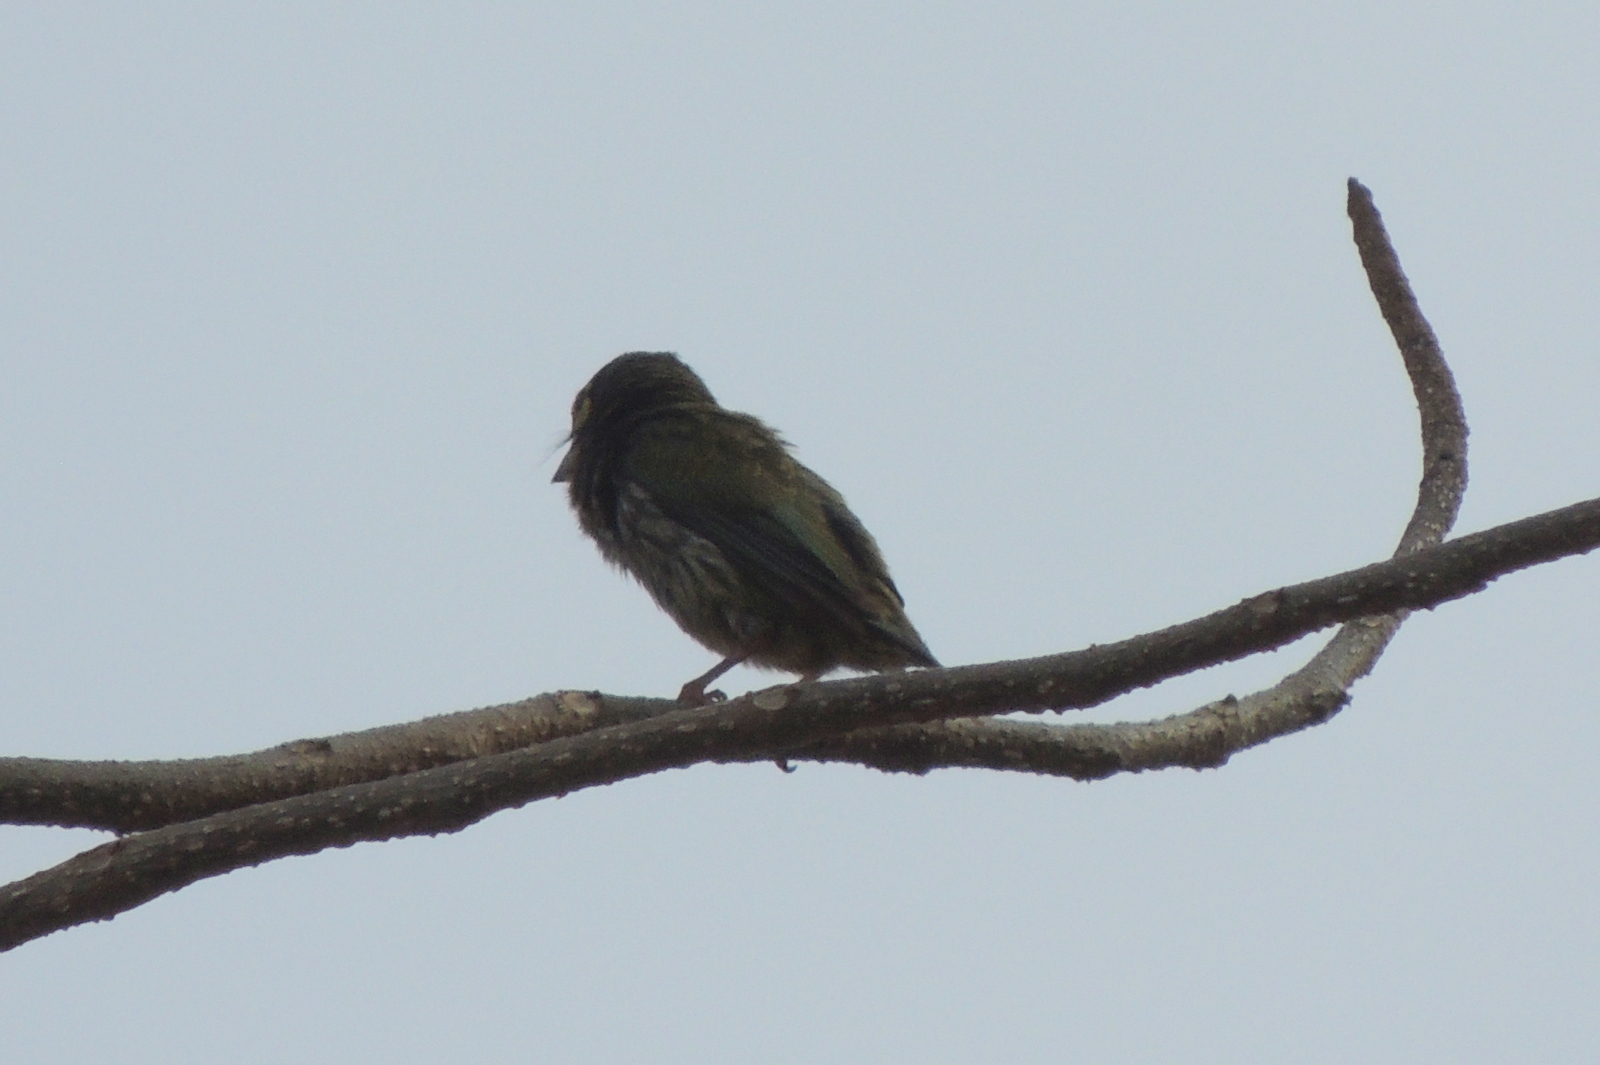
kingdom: Animalia
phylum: Chordata
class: Aves
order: Piciformes
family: Megalaimidae
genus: Psilopogon
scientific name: Psilopogon haemacephalus
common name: Coppersmith barbet
